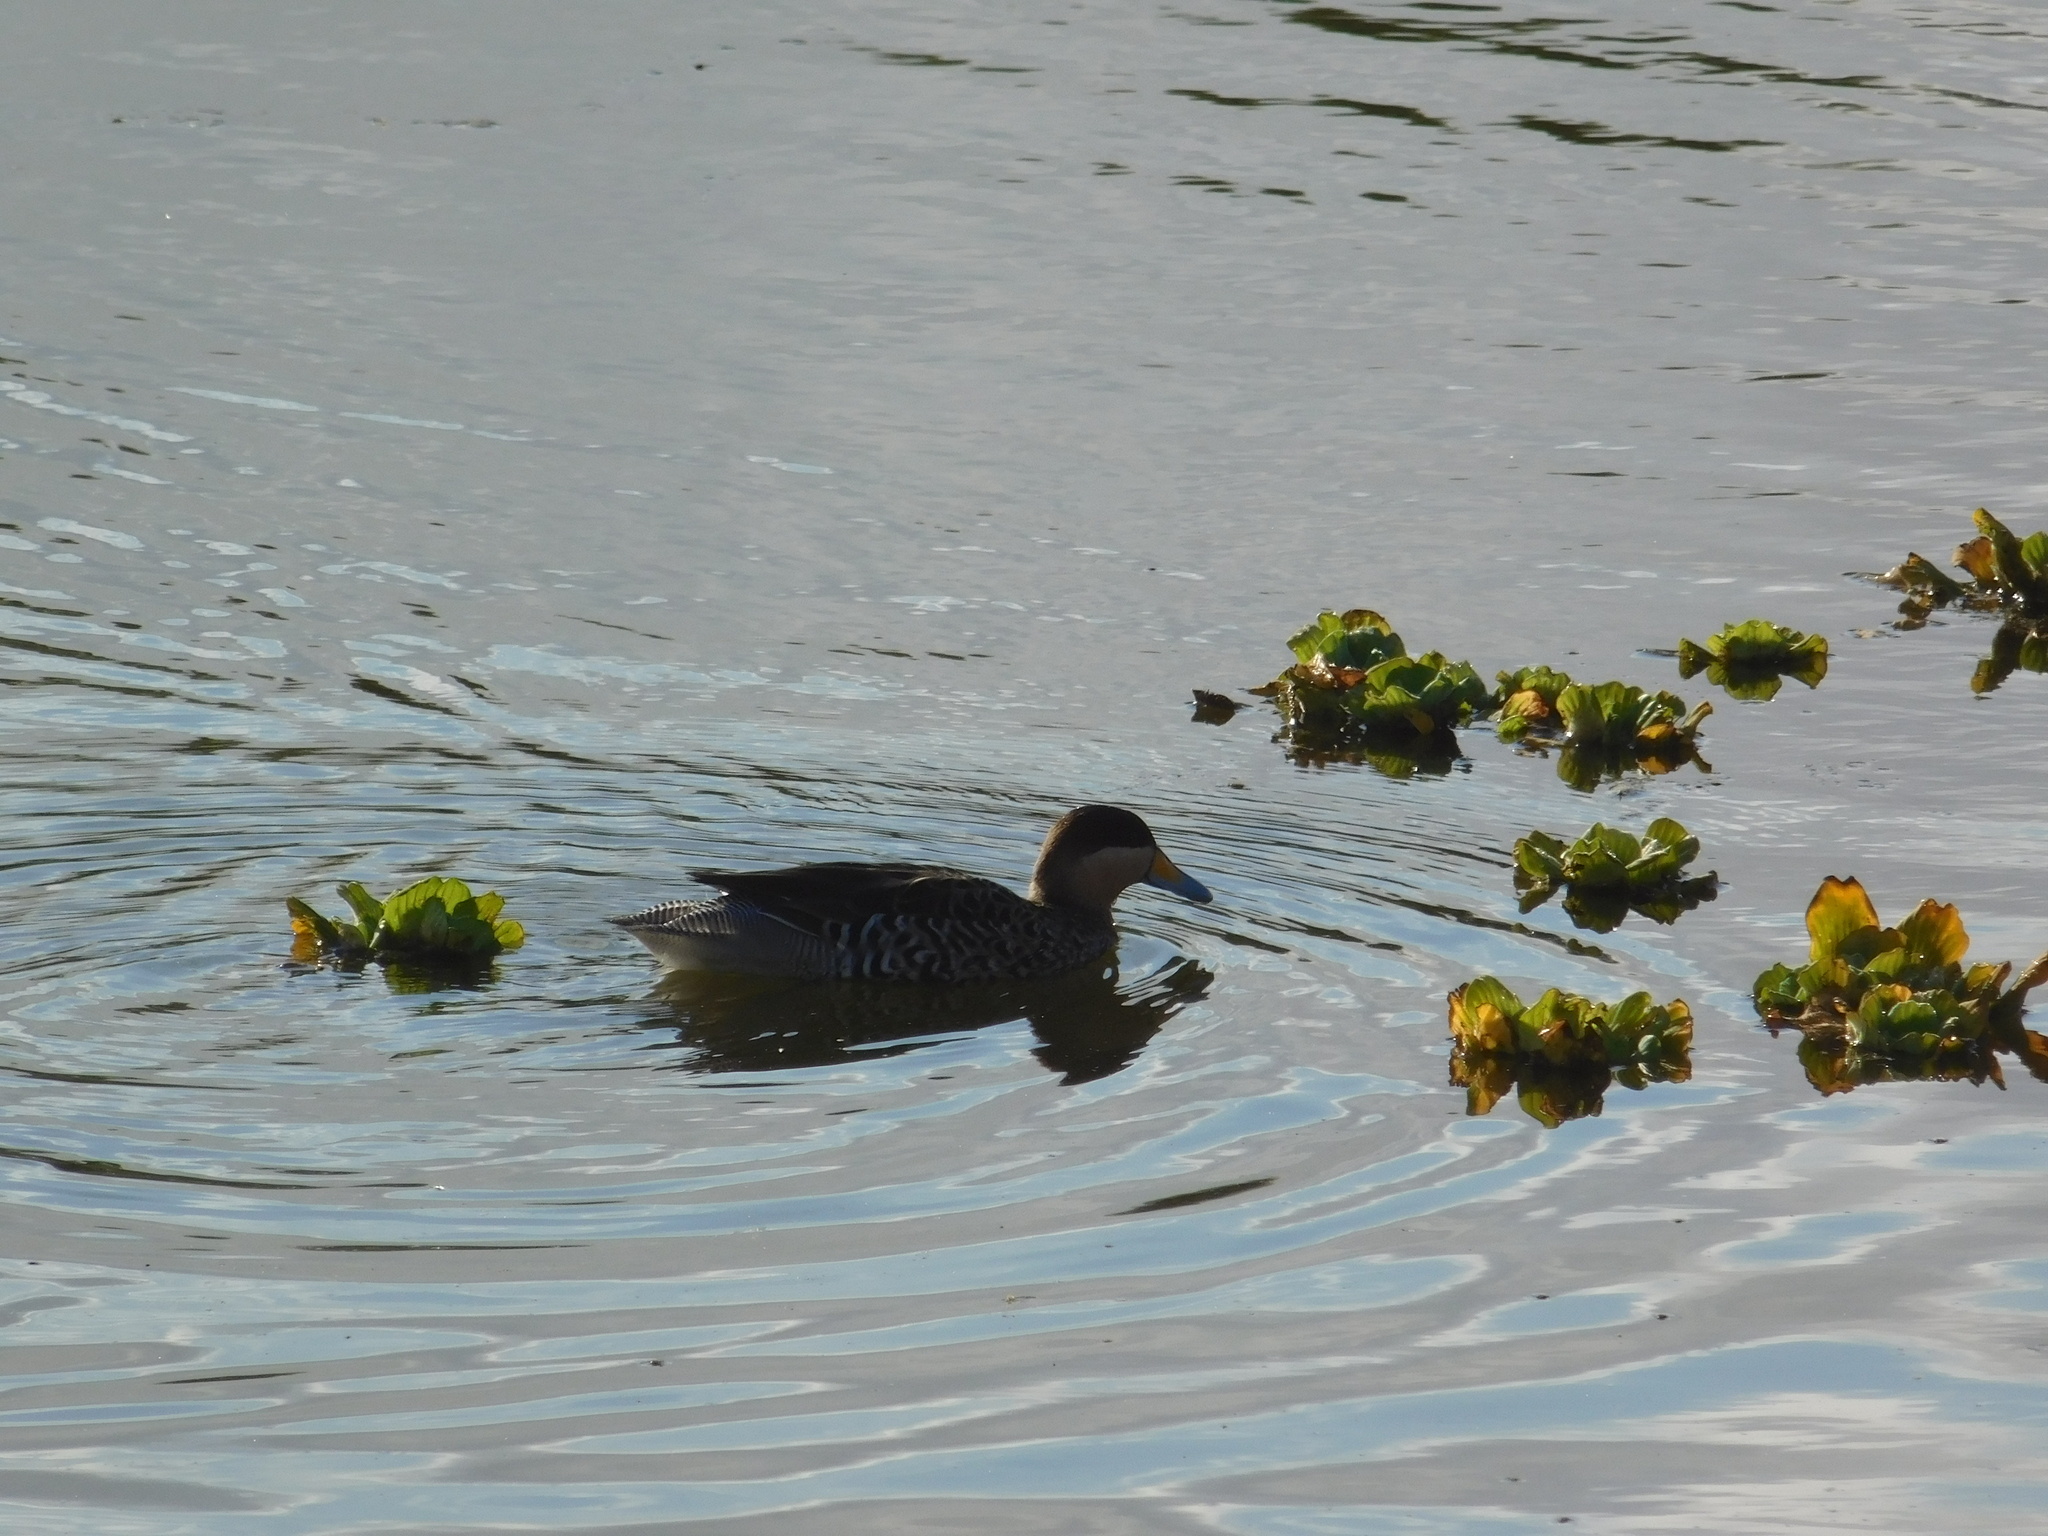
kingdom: Animalia
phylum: Chordata
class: Aves
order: Anseriformes
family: Anatidae
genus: Spatula
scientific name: Spatula versicolor
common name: Silver teal
